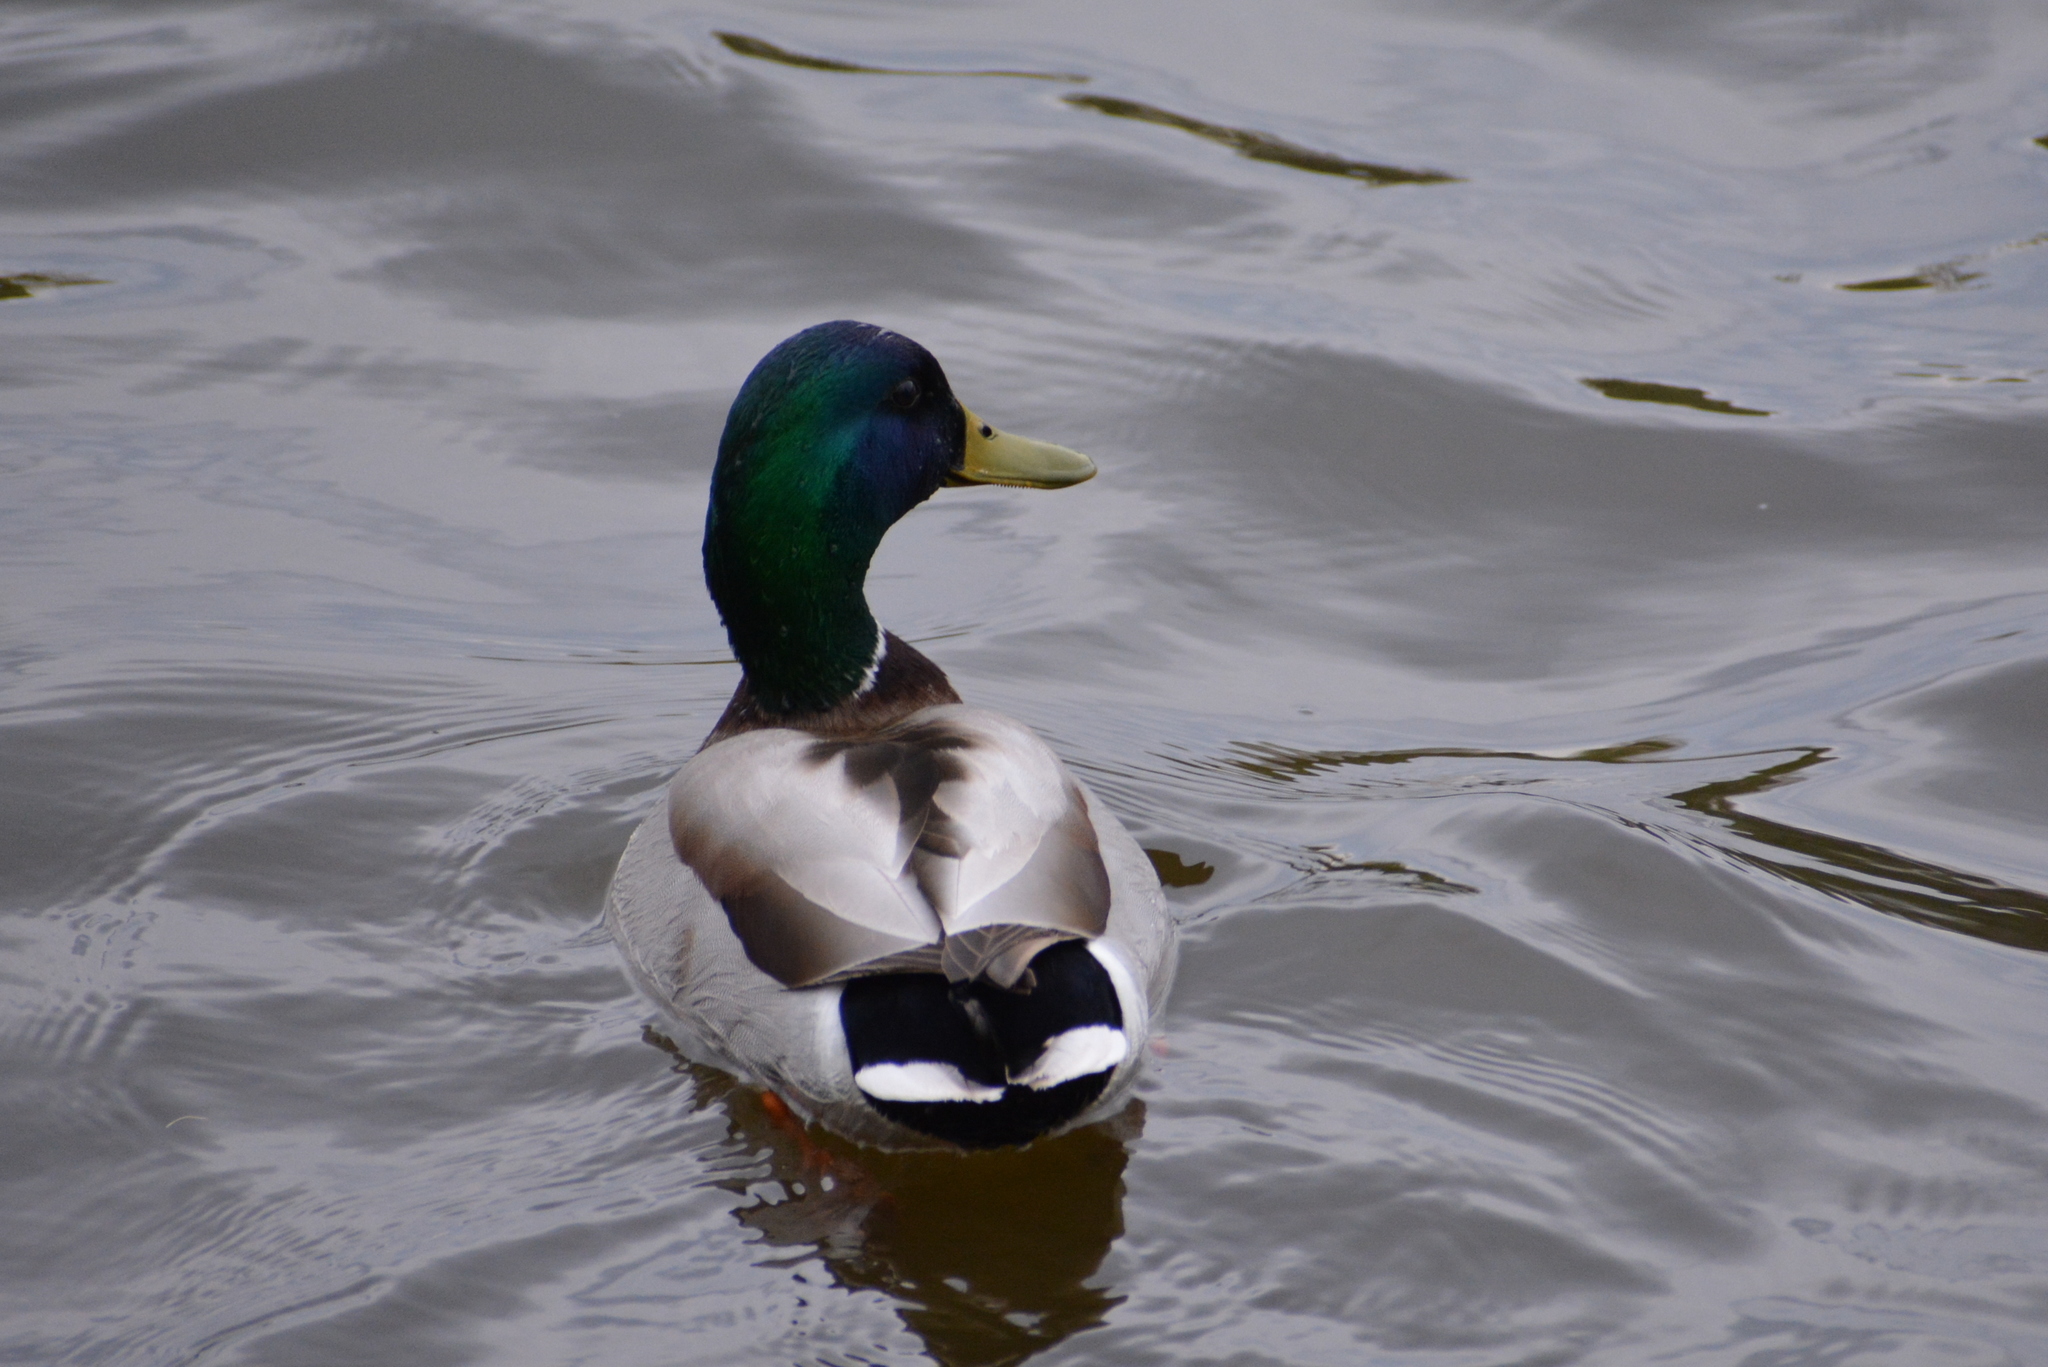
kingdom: Animalia
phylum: Chordata
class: Aves
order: Anseriformes
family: Anatidae
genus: Anas
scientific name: Anas platyrhynchos
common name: Mallard
